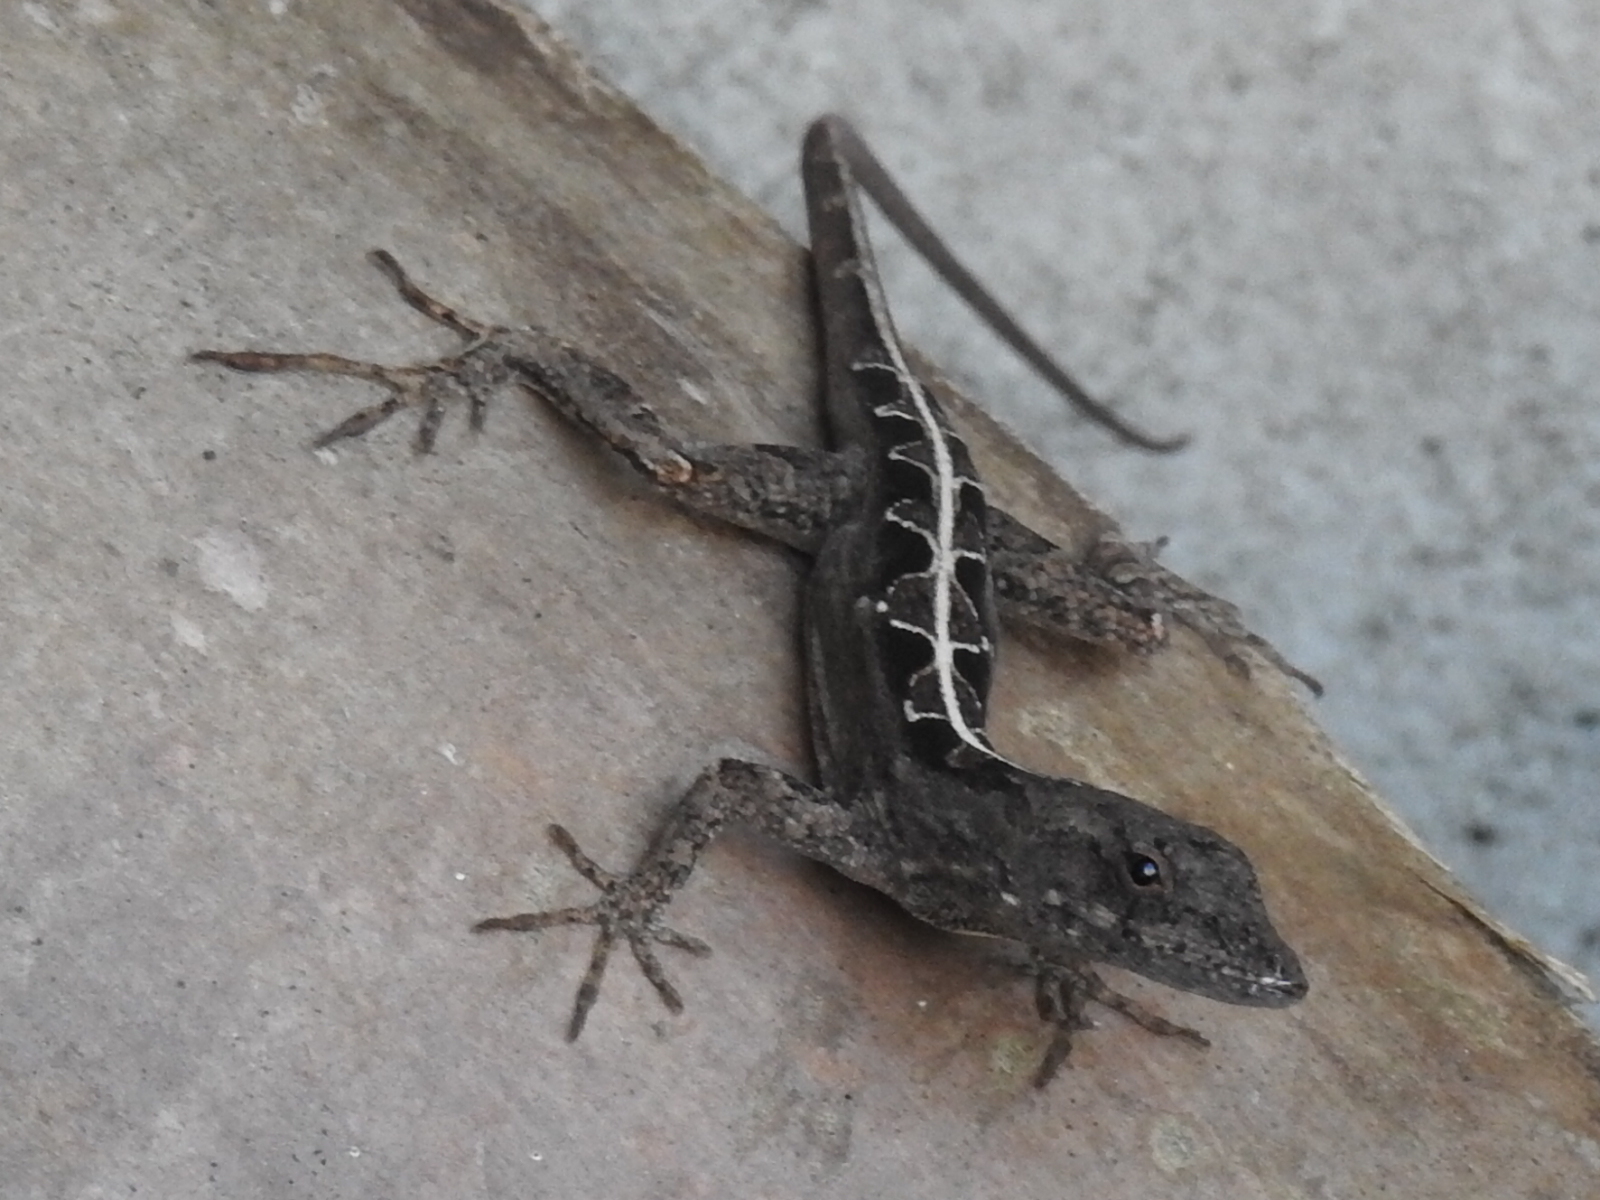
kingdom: Animalia
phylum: Chordata
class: Squamata
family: Dactyloidae
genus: Anolis
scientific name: Anolis sagrei
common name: Brown anole
